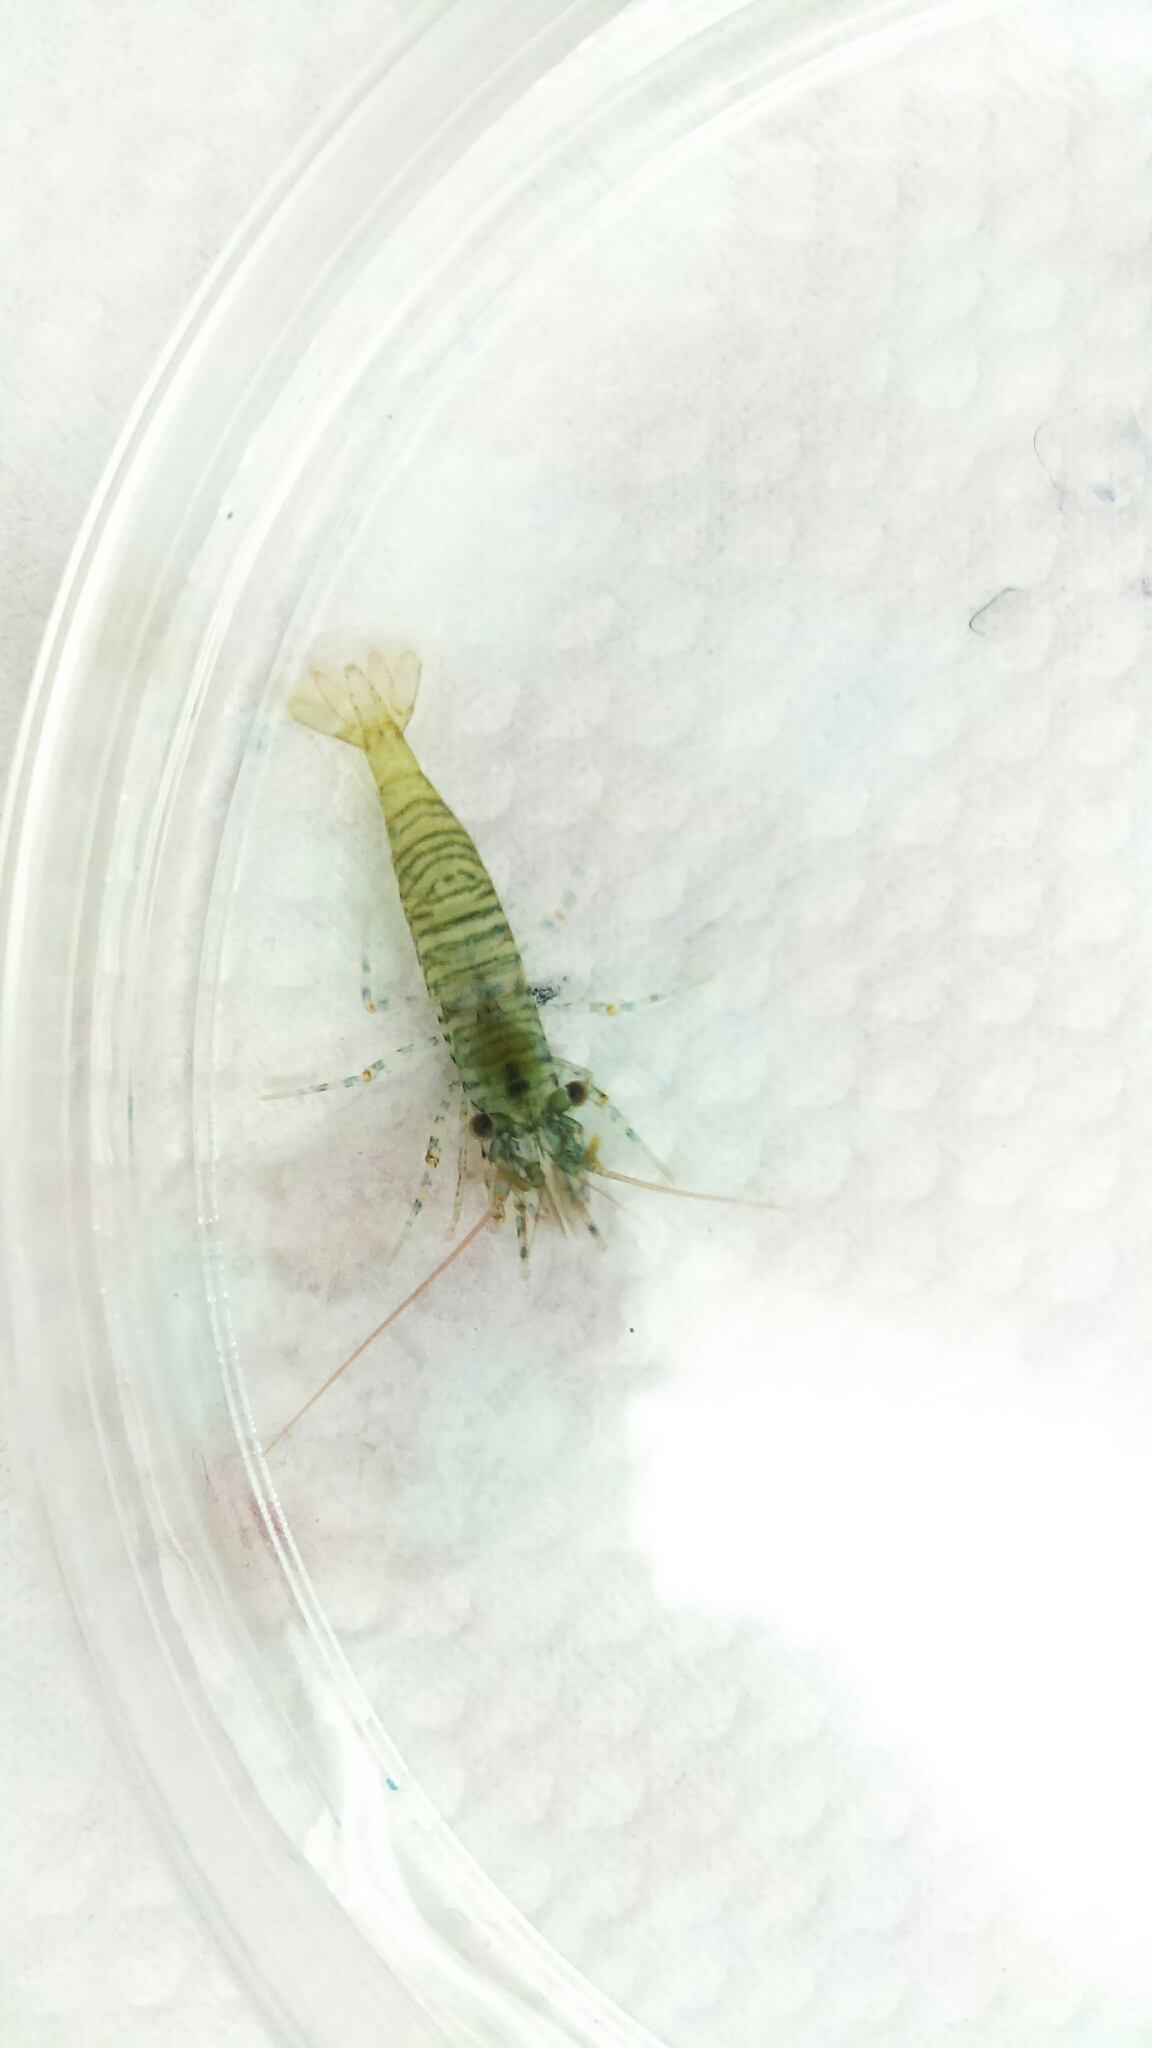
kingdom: Animalia
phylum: Arthropoda
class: Malacostraca
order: Decapoda
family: Thoridae
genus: Heptacarpus
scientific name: Heptacarpus brevirostris
